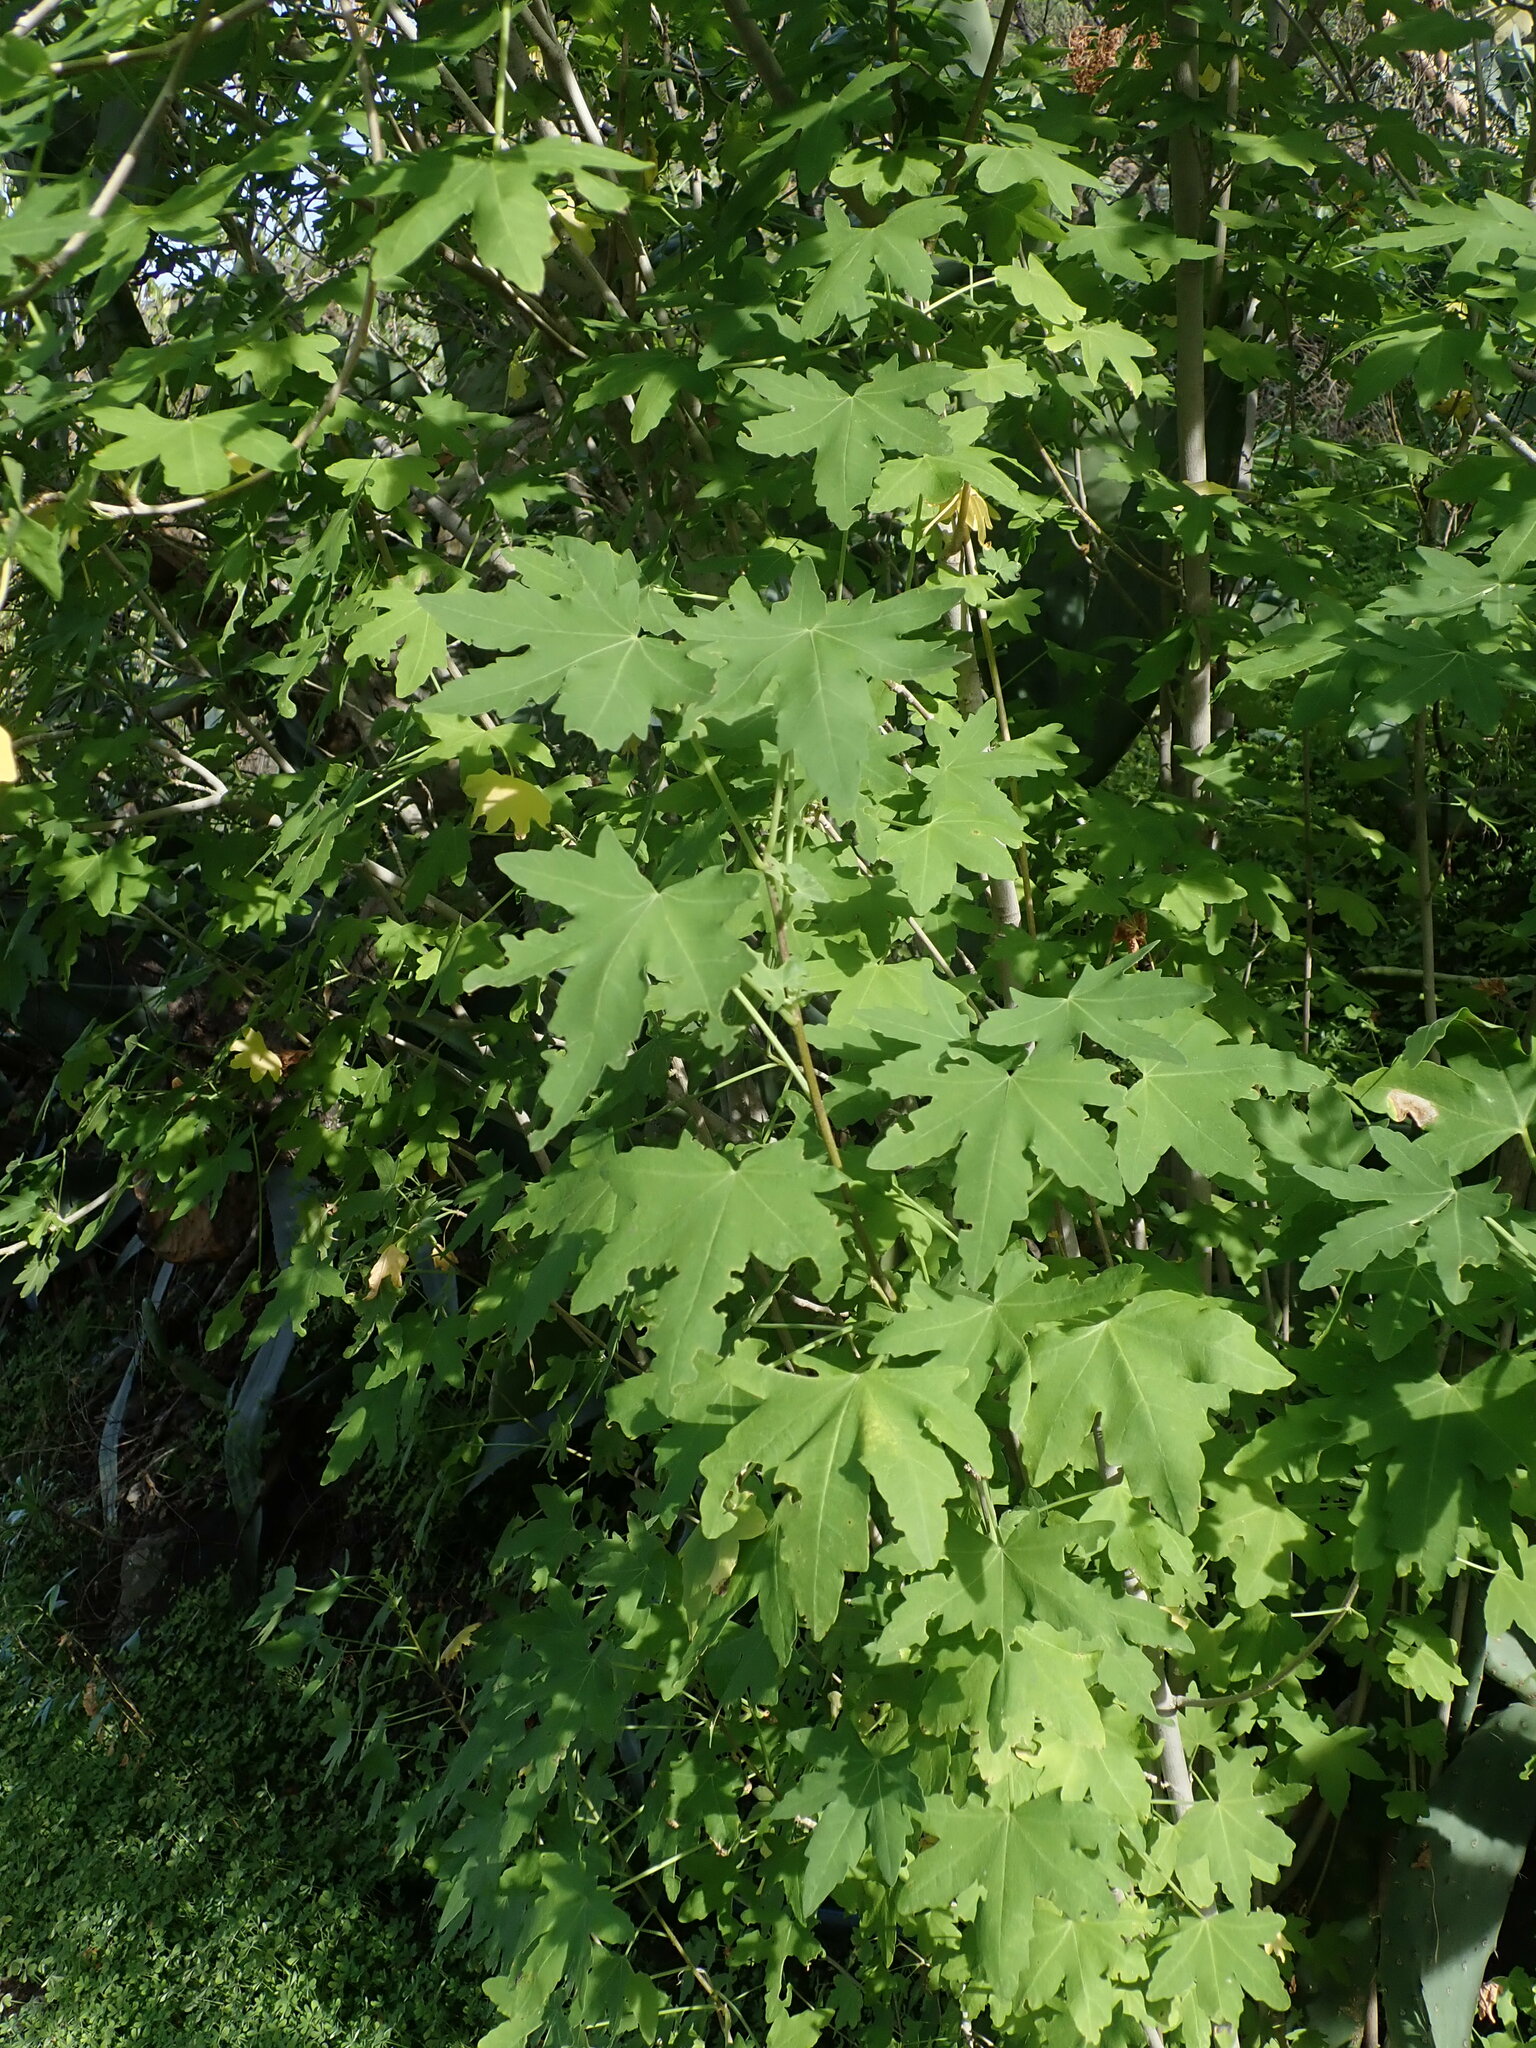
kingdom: Plantae
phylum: Tracheophyta
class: Magnoliopsida
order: Malvales
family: Malvaceae
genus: Malva
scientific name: Malva acerifolia
